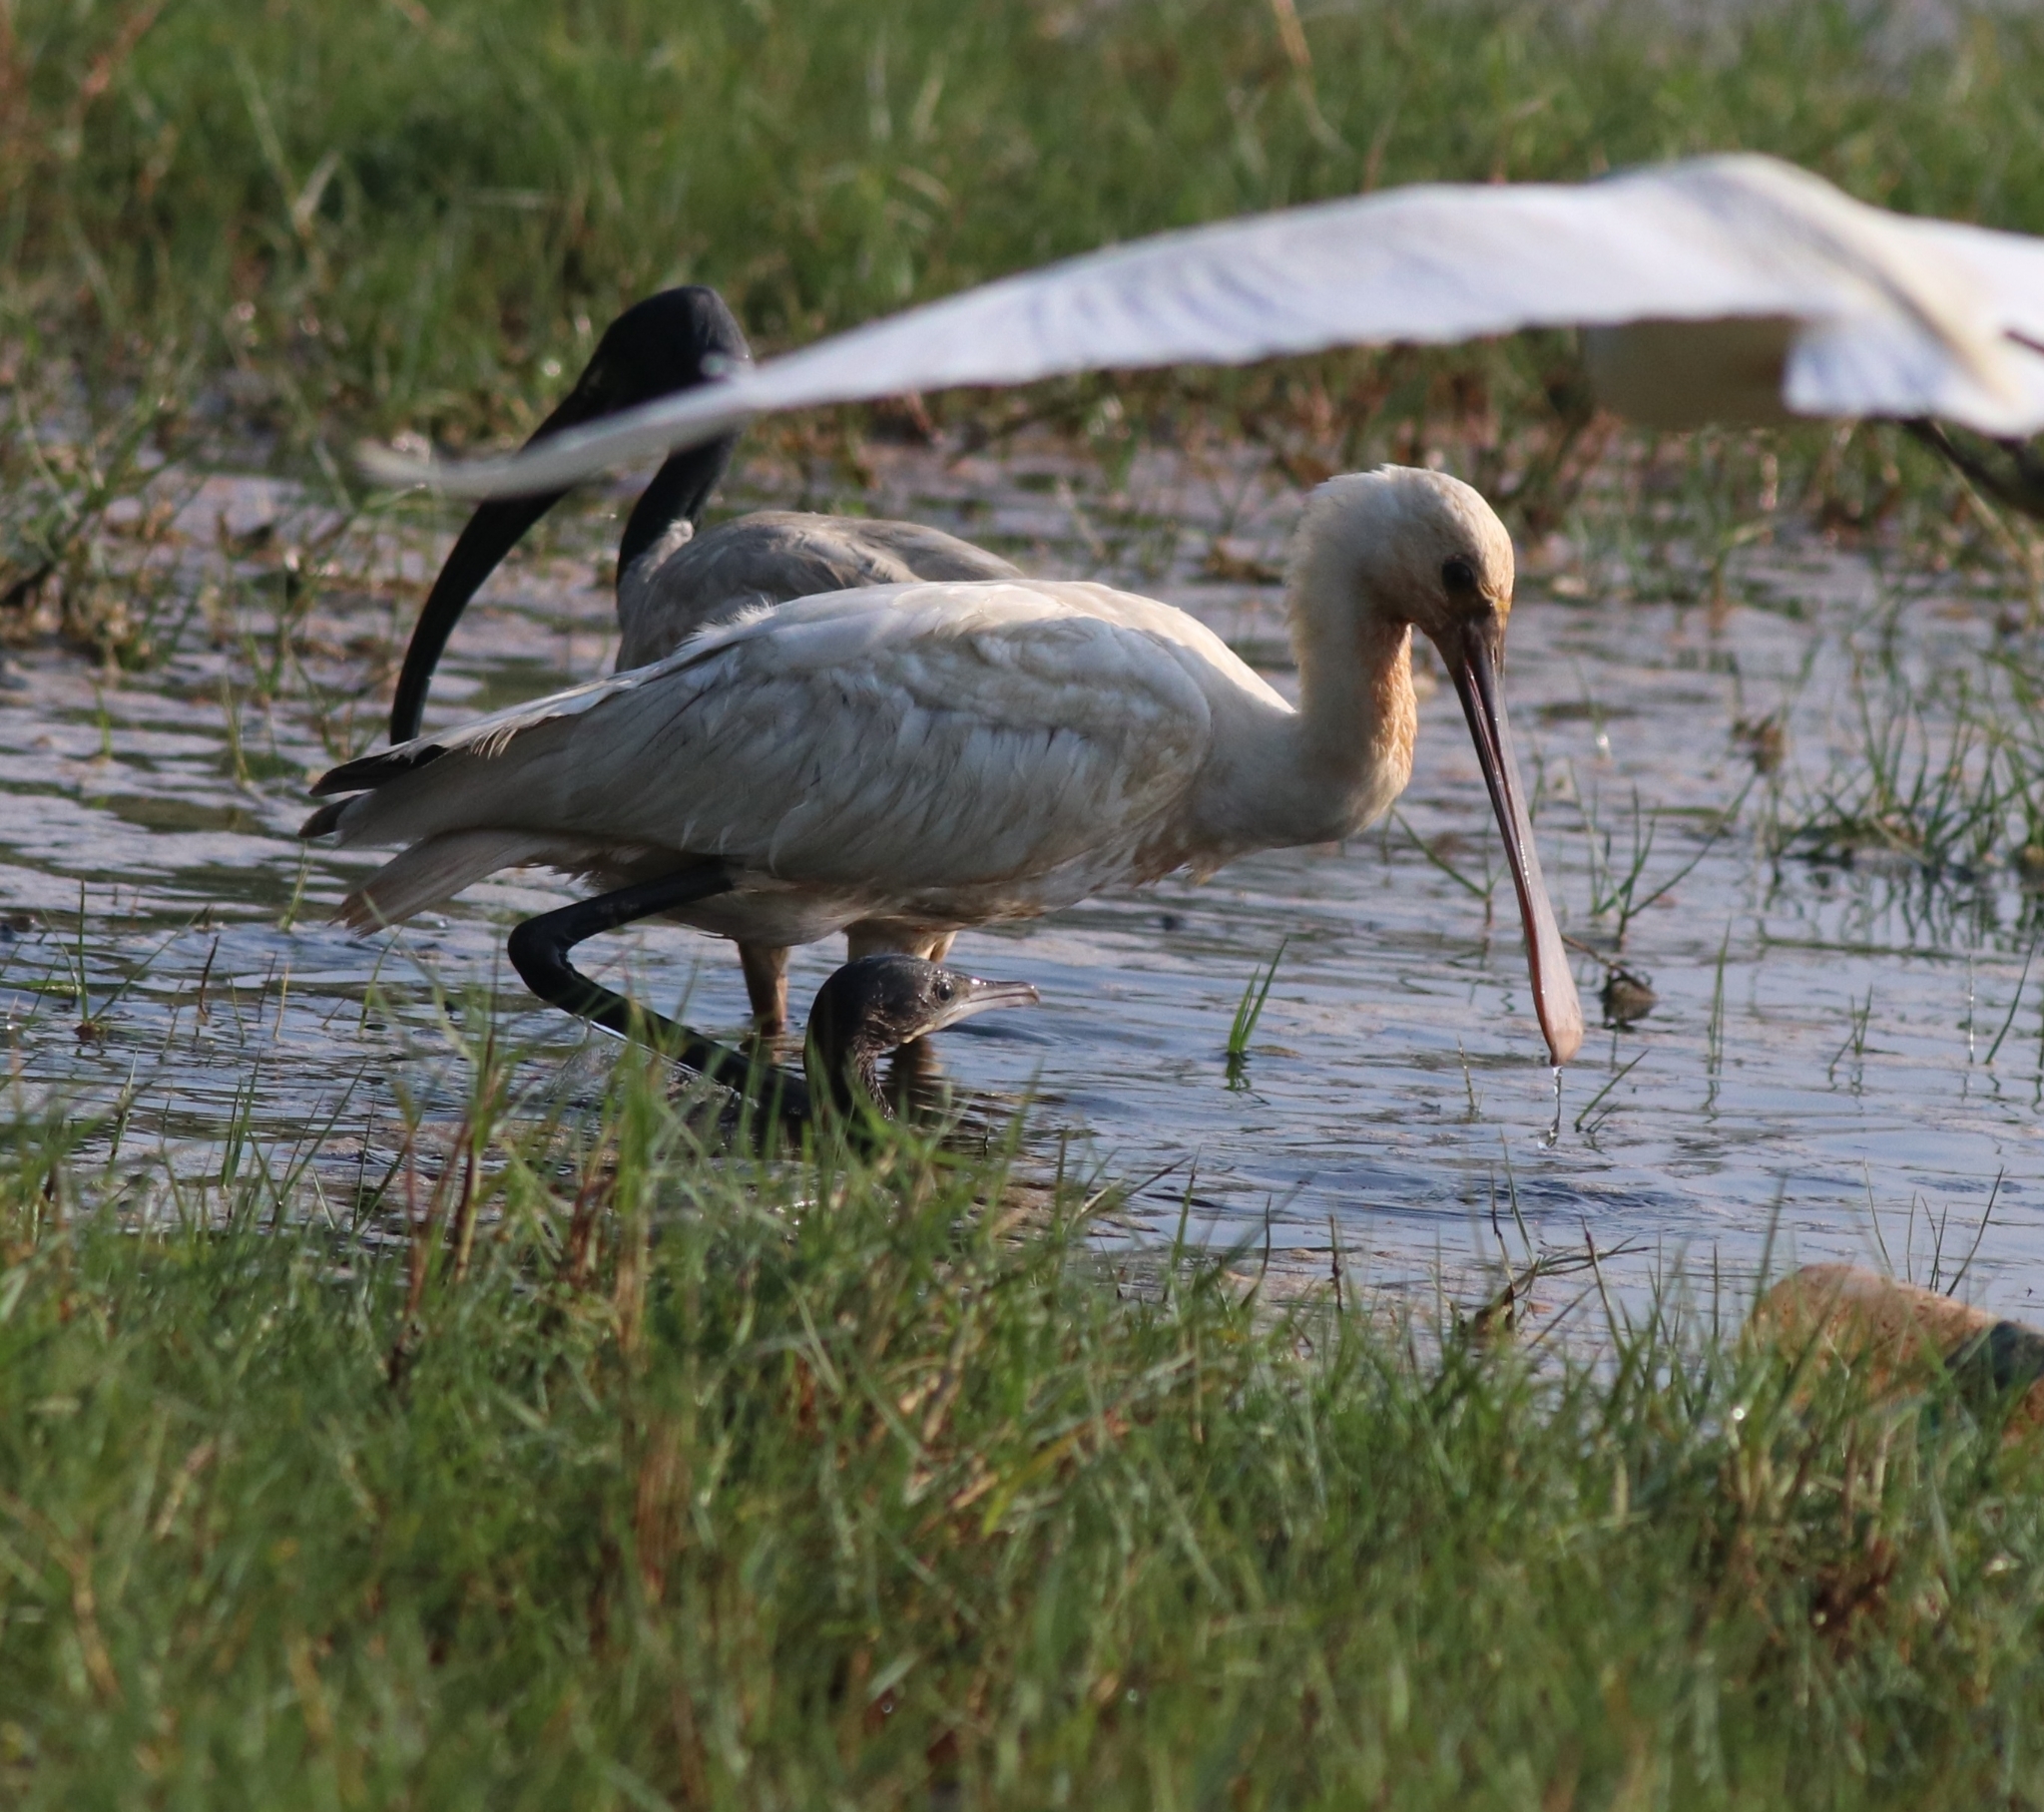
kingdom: Animalia
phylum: Chordata
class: Aves
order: Pelecaniformes
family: Threskiornithidae
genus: Platalea
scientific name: Platalea leucorodia
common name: Eurasian spoonbill
